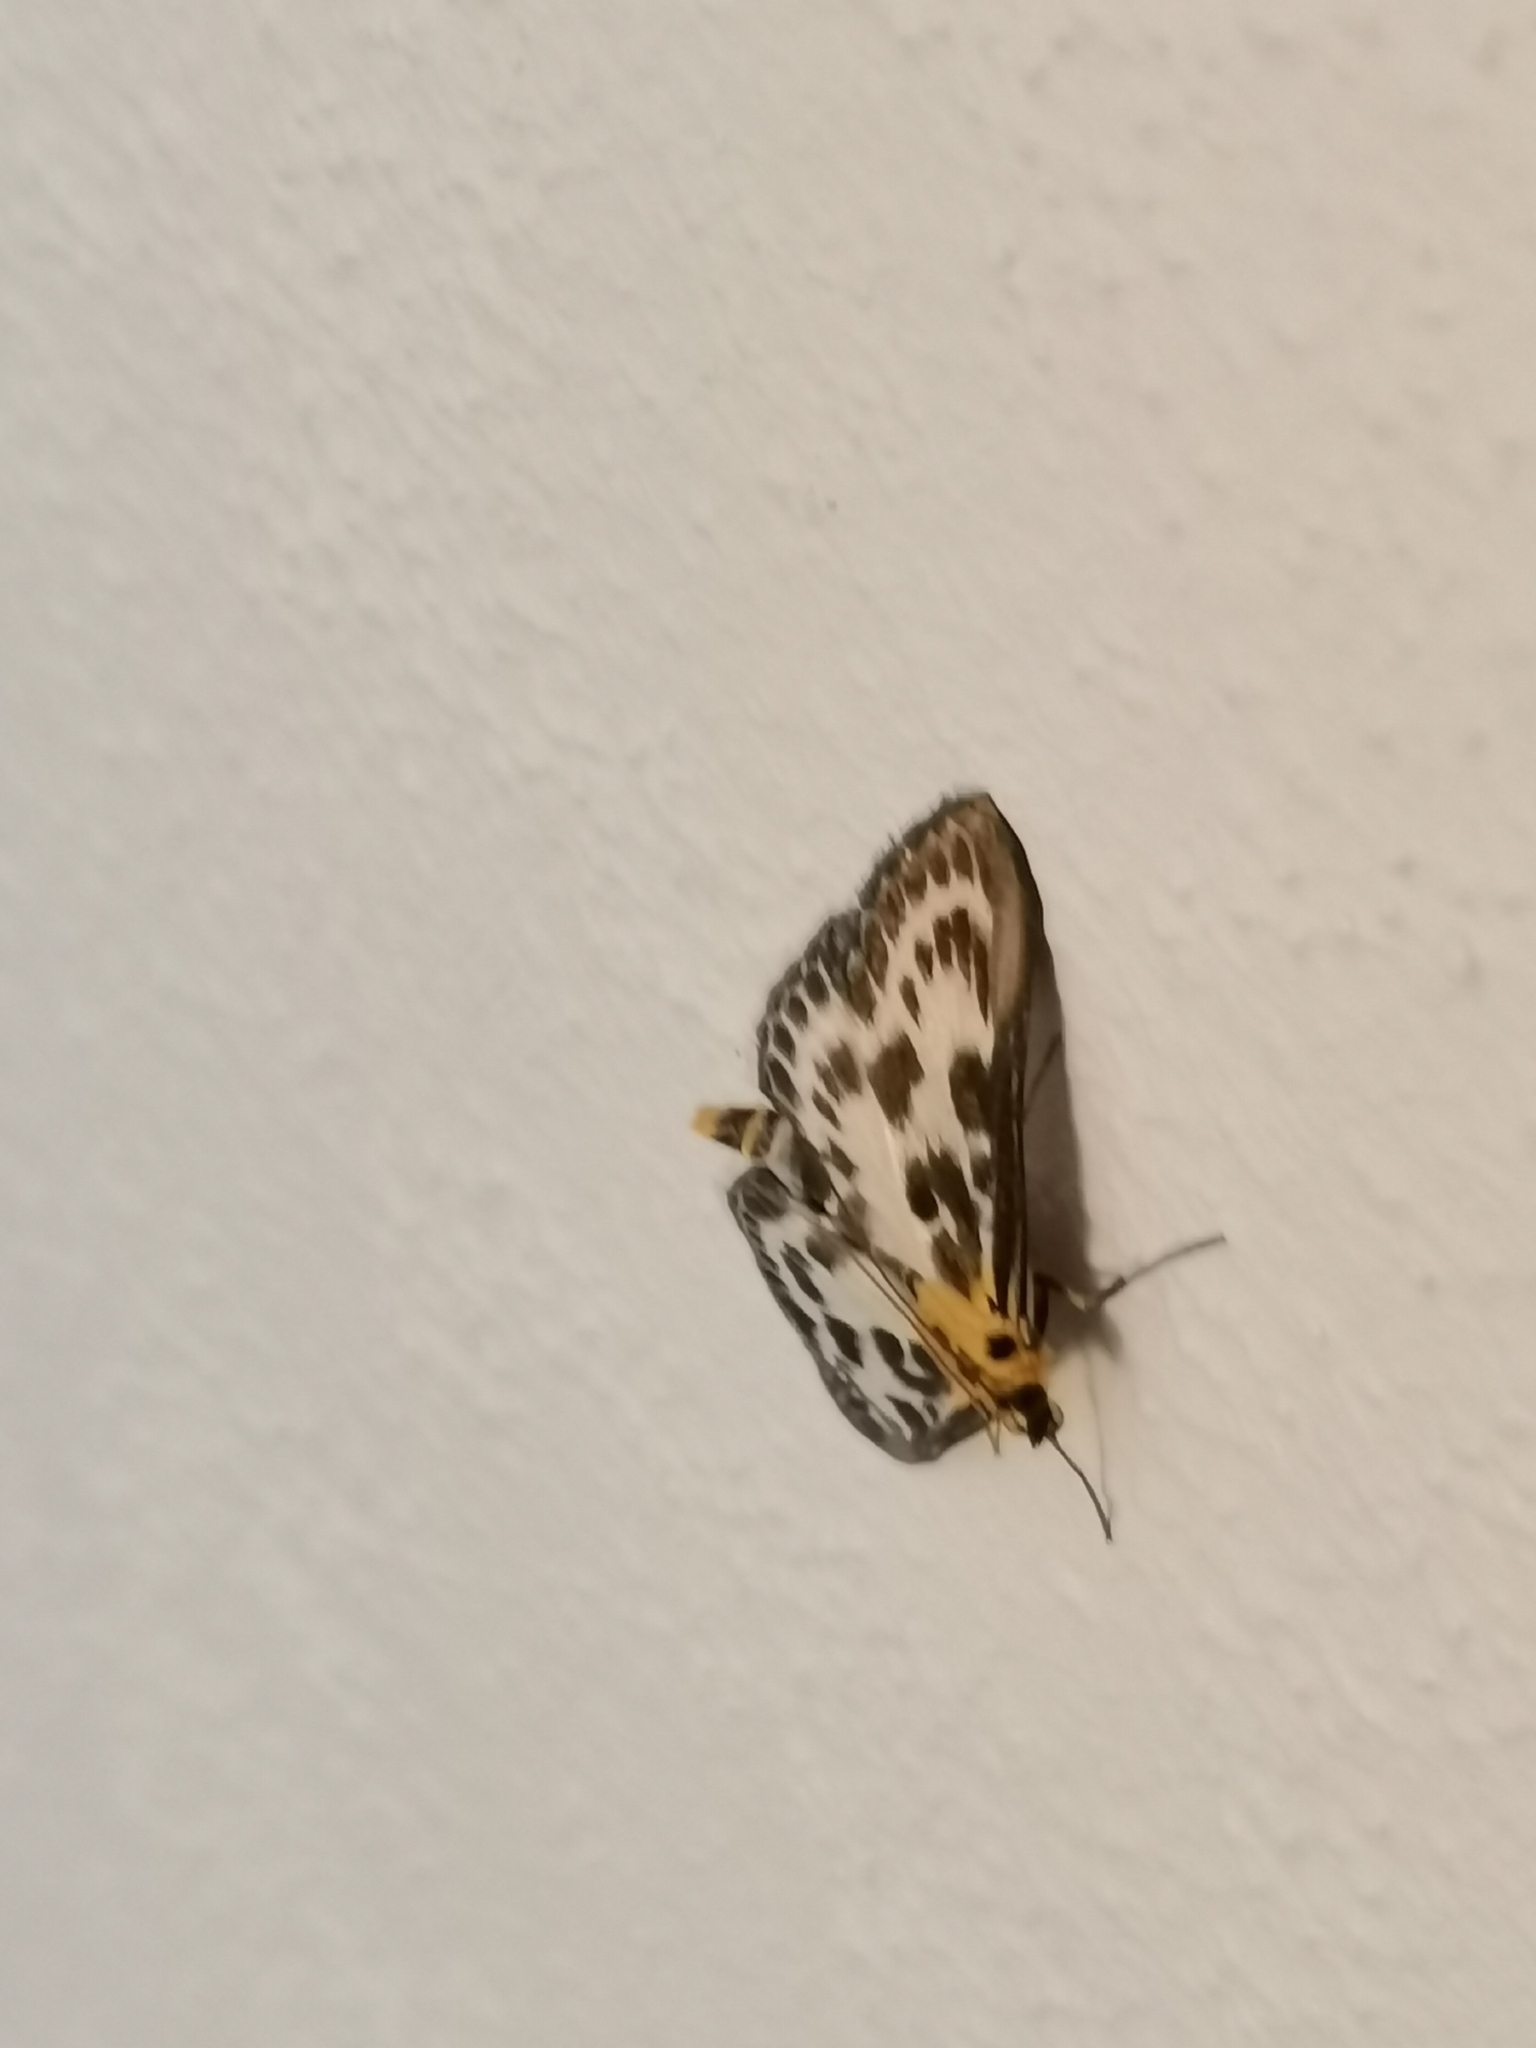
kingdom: Animalia
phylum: Arthropoda
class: Insecta
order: Lepidoptera
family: Crambidae
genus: Anania
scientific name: Anania hortulata
